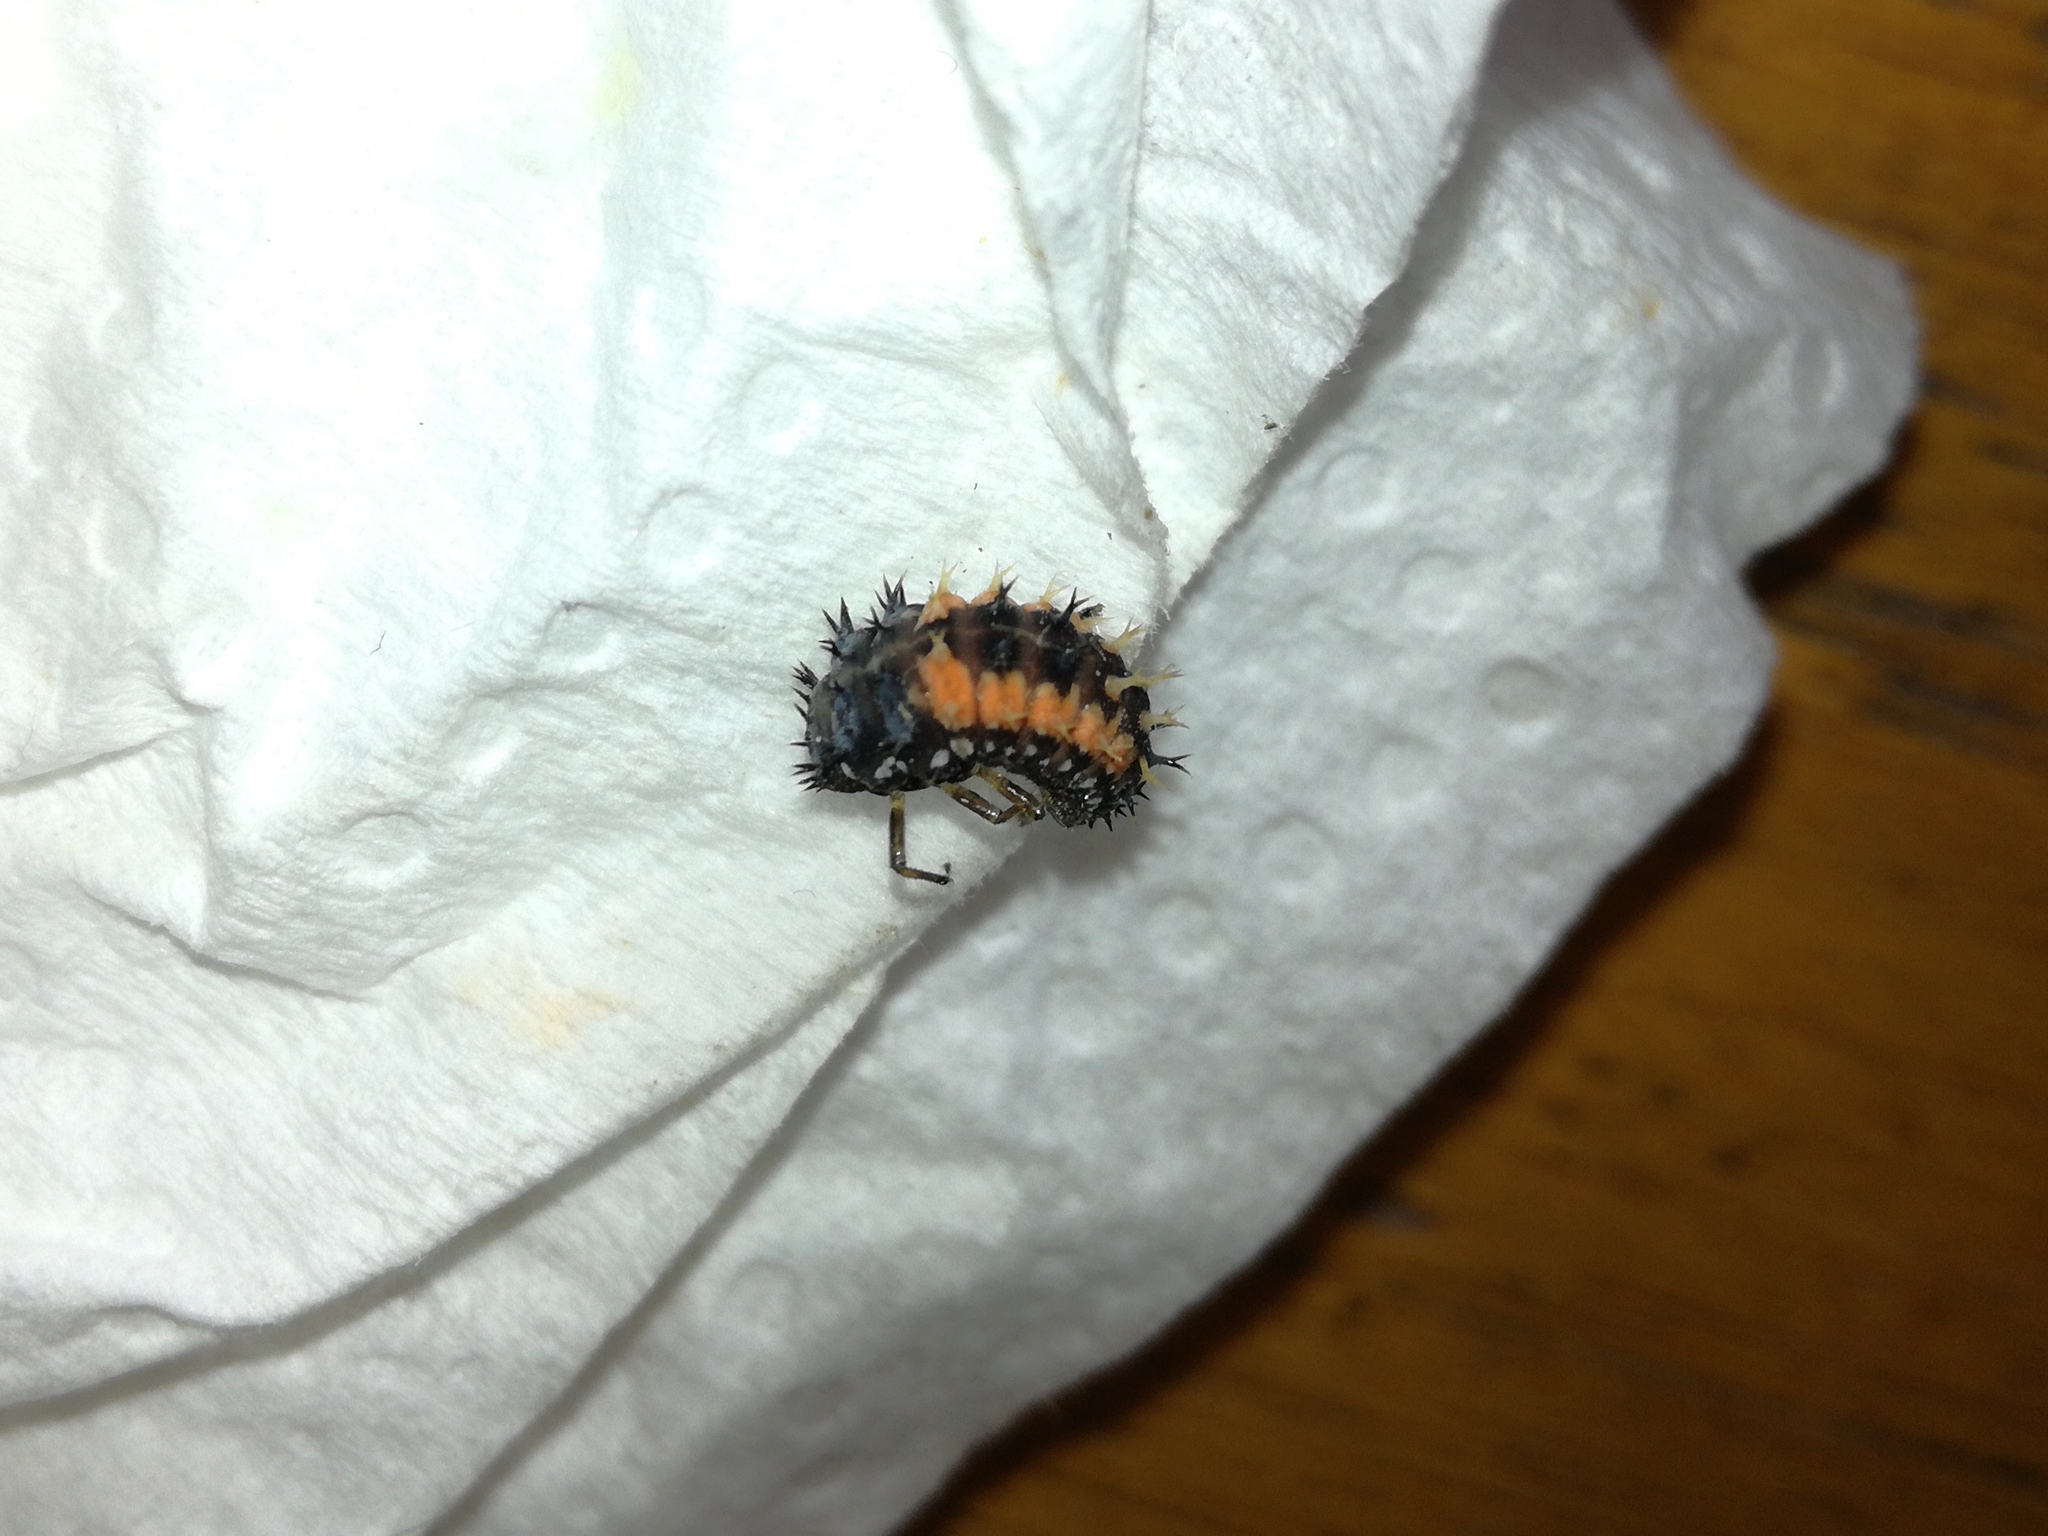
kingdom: Animalia
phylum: Arthropoda
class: Insecta
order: Coleoptera
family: Coccinellidae
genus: Harmonia
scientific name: Harmonia axyridis
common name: Harlequin ladybird
